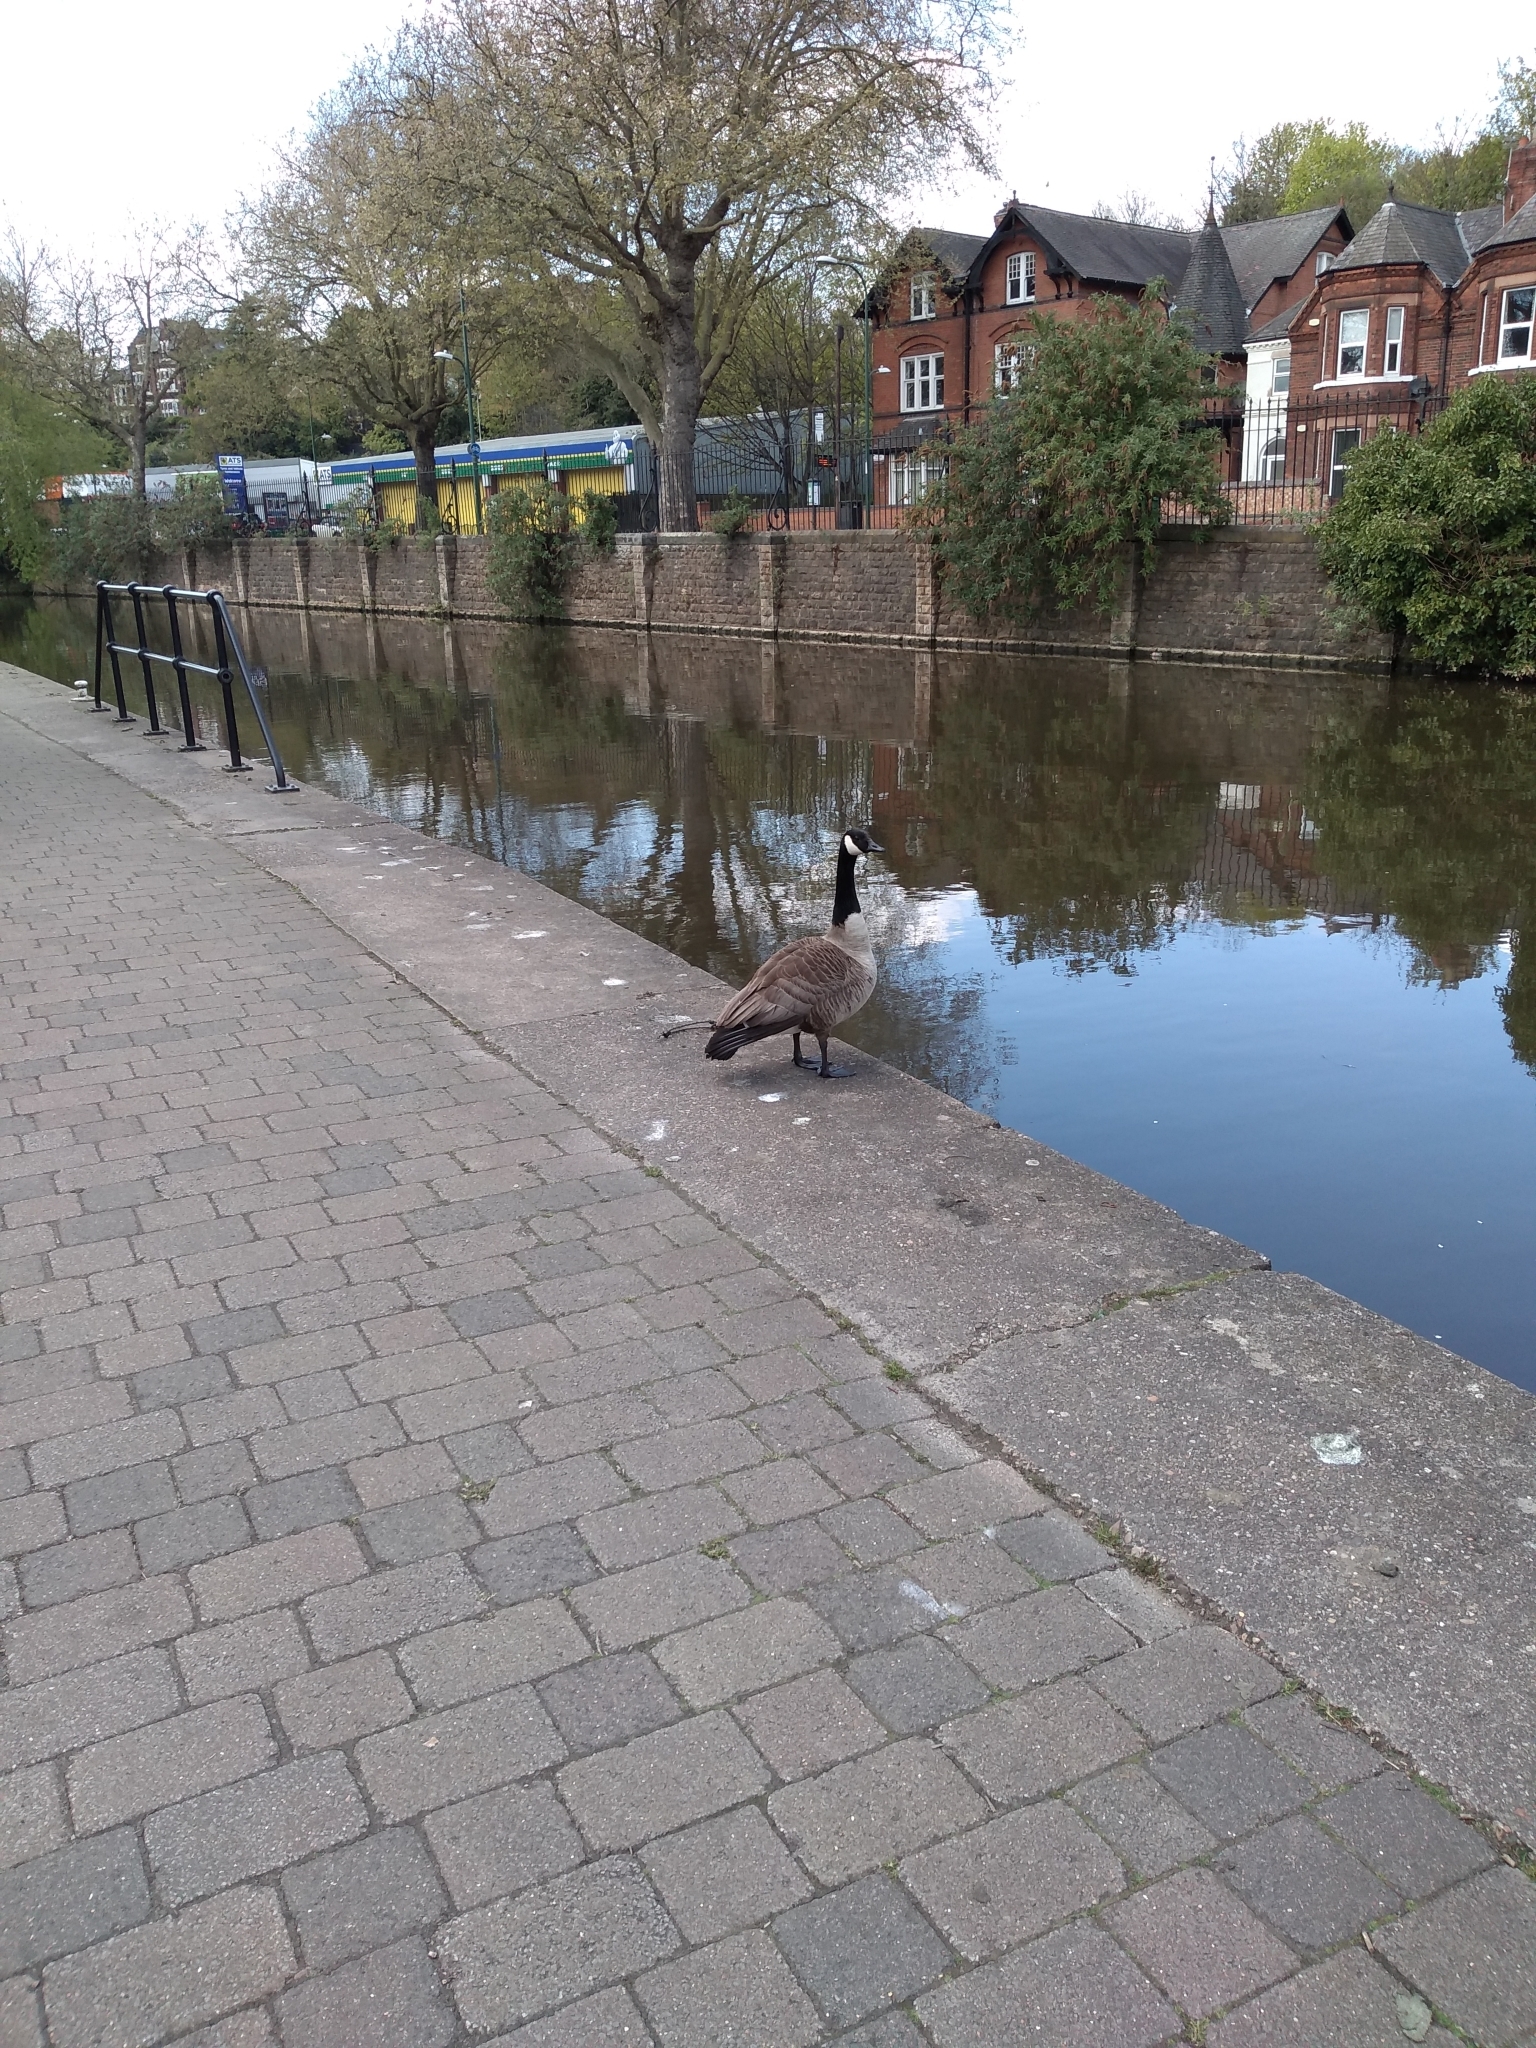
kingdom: Animalia
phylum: Chordata
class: Aves
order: Anseriformes
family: Anatidae
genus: Branta
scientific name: Branta canadensis
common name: Canada goose
